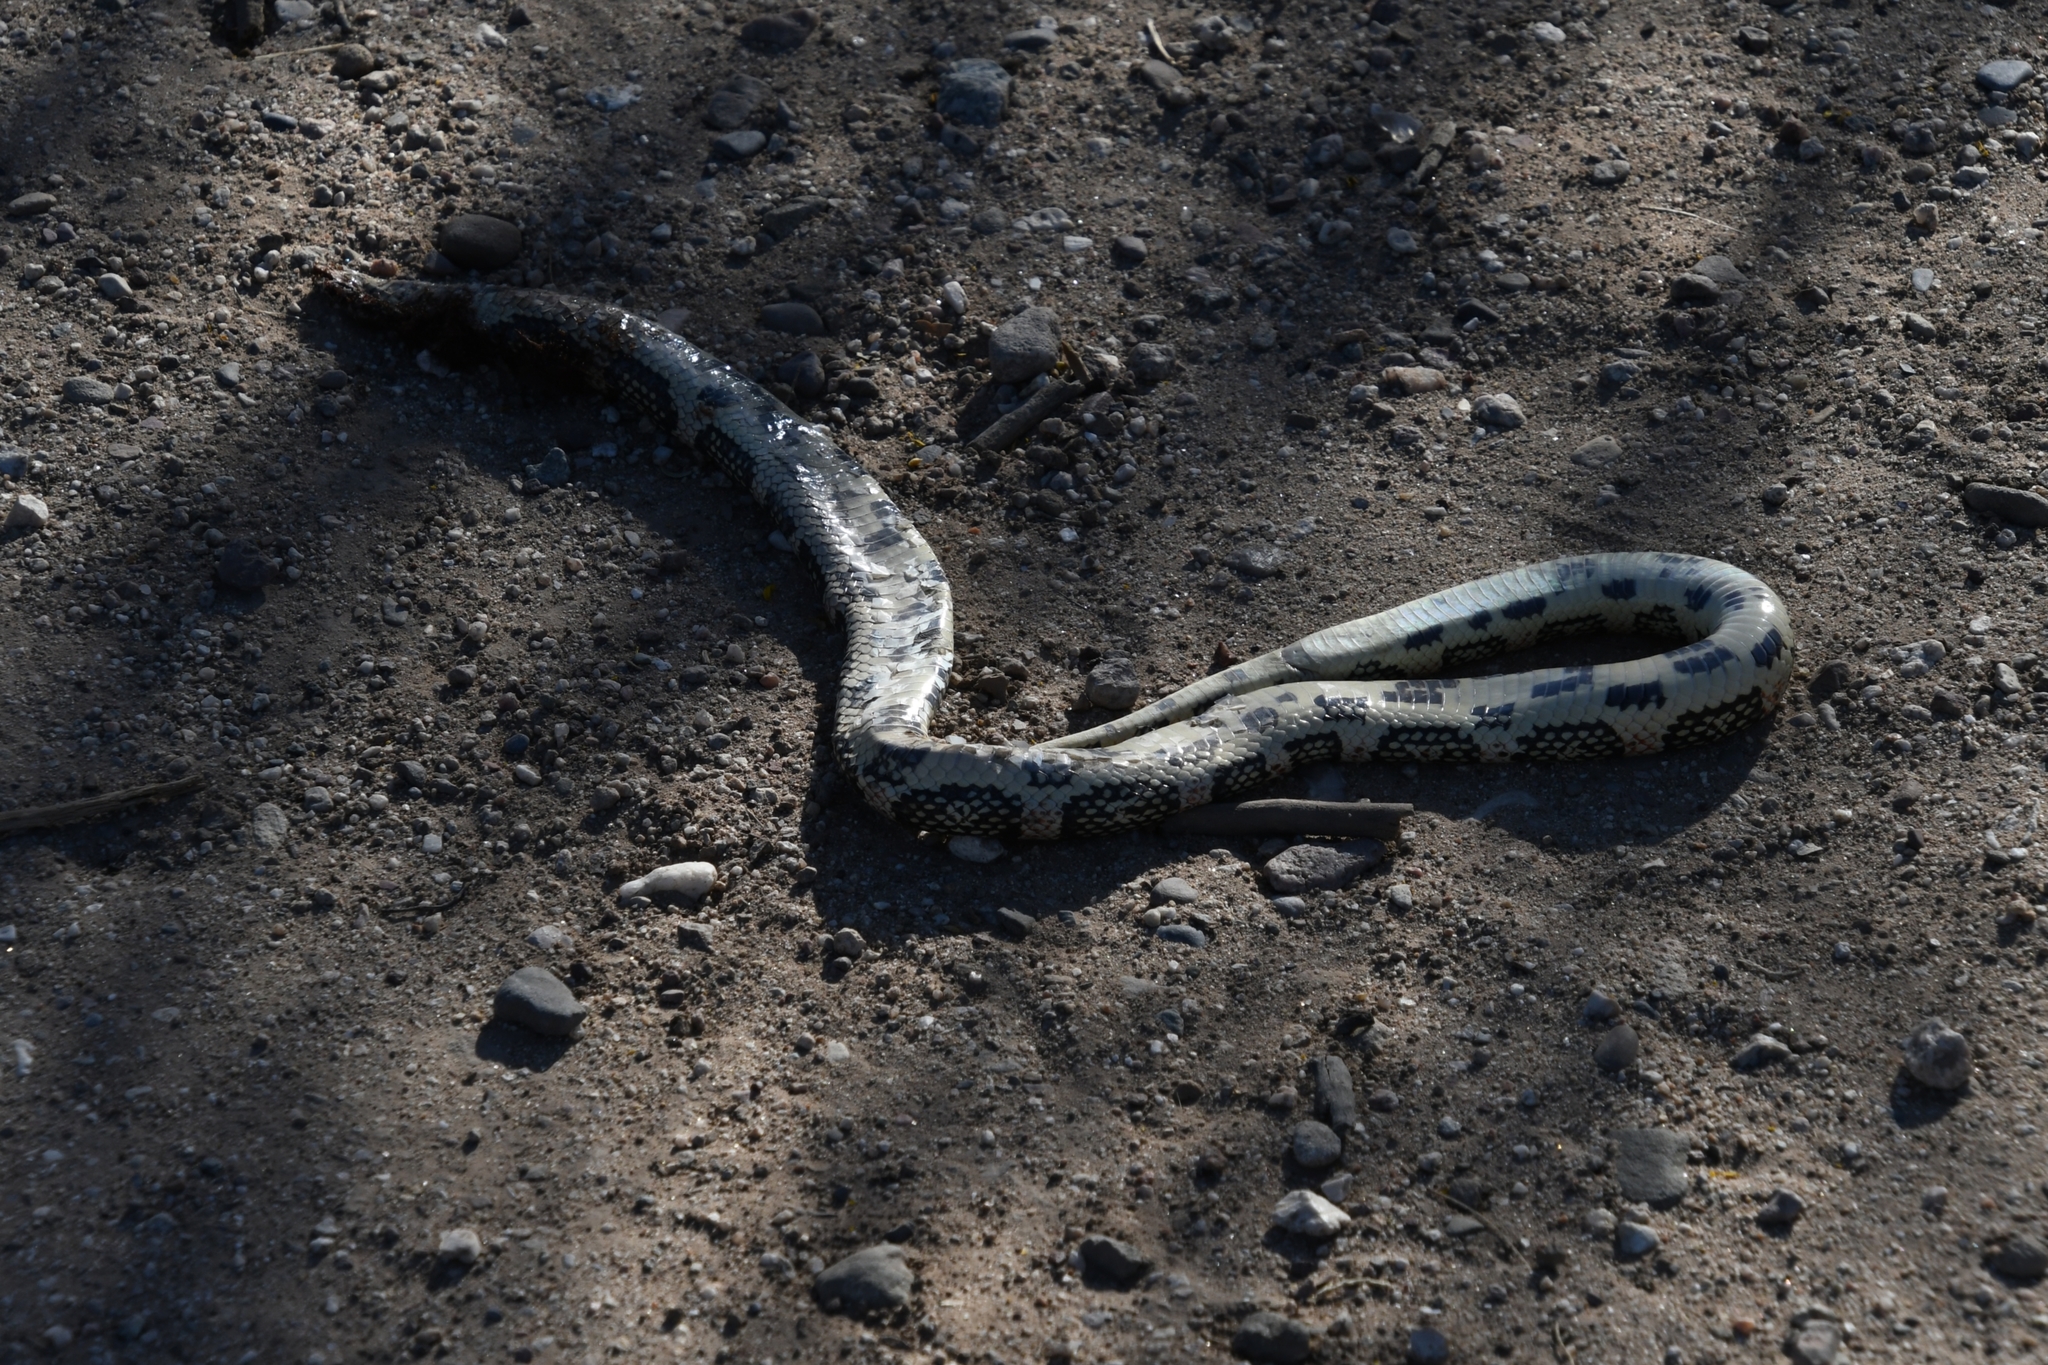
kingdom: Animalia
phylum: Chordata
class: Squamata
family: Colubridae
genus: Rhinocheilus
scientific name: Rhinocheilus lecontei
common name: Longnose snake
